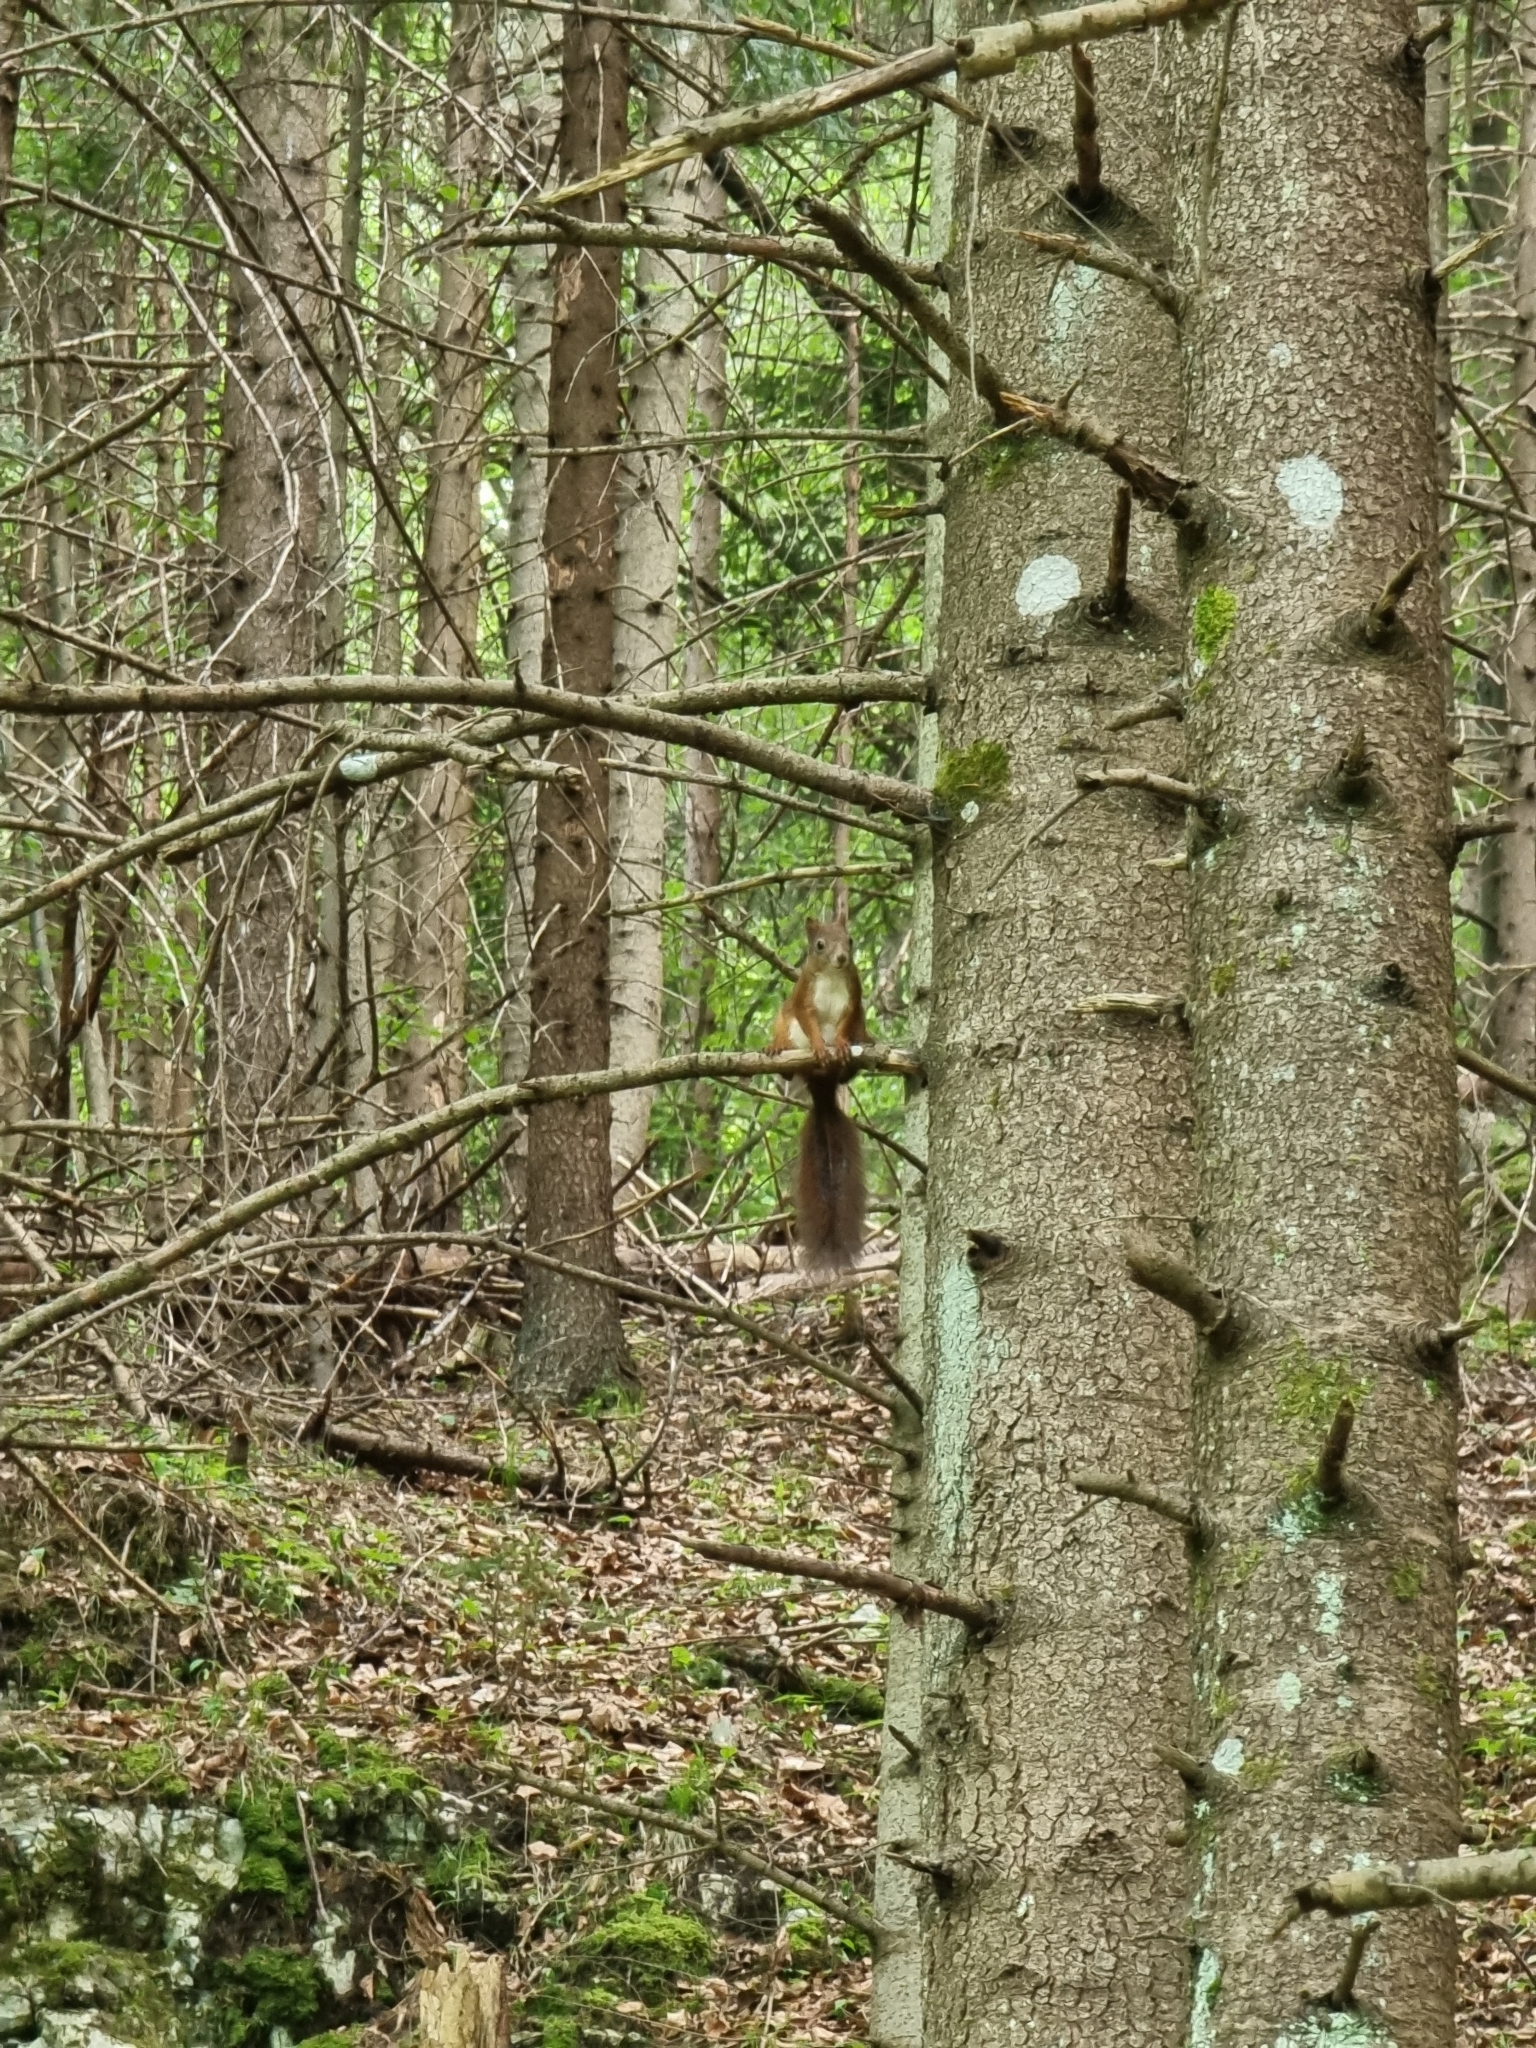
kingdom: Animalia
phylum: Chordata
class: Mammalia
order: Rodentia
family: Sciuridae
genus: Sciurus
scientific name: Sciurus vulgaris
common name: Eurasian red squirrel
